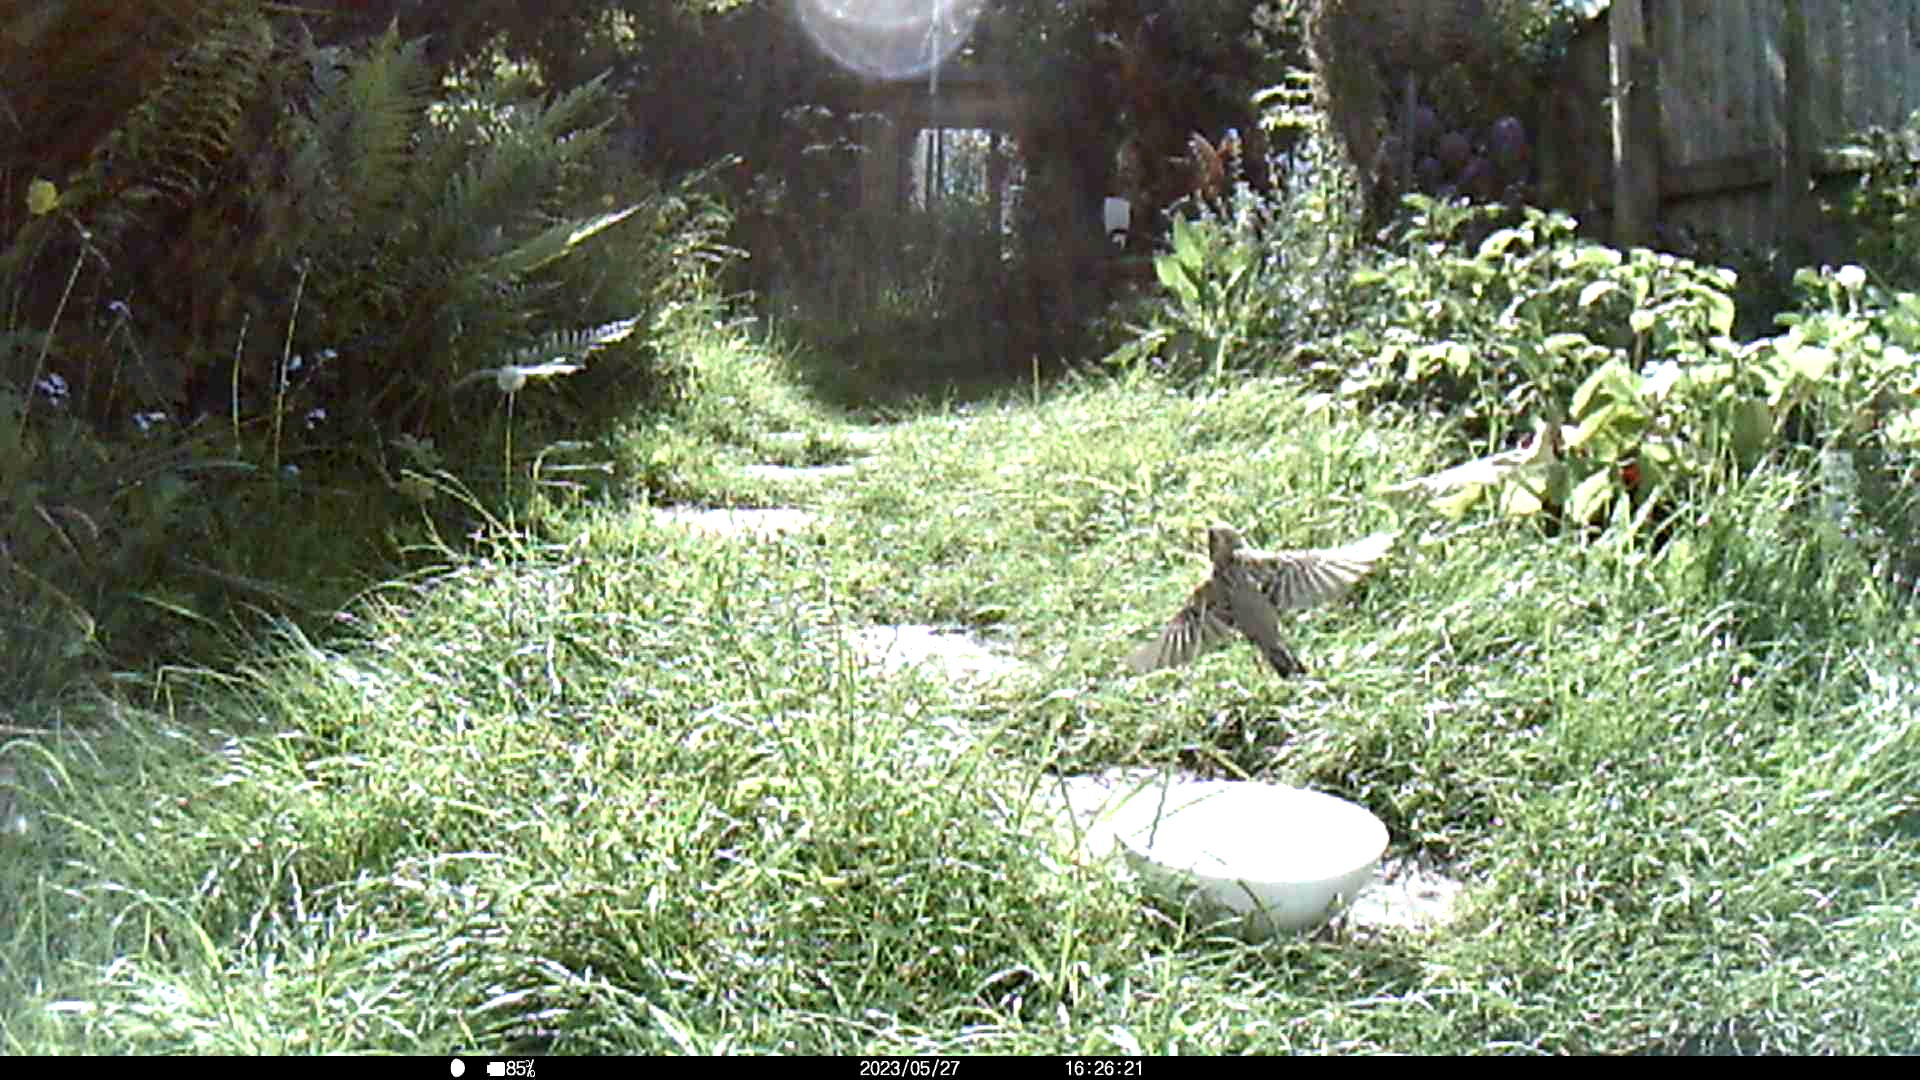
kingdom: Animalia
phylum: Chordata
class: Aves
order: Passeriformes
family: Passeridae
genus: Passer
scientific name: Passer domesticus
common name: House sparrow
